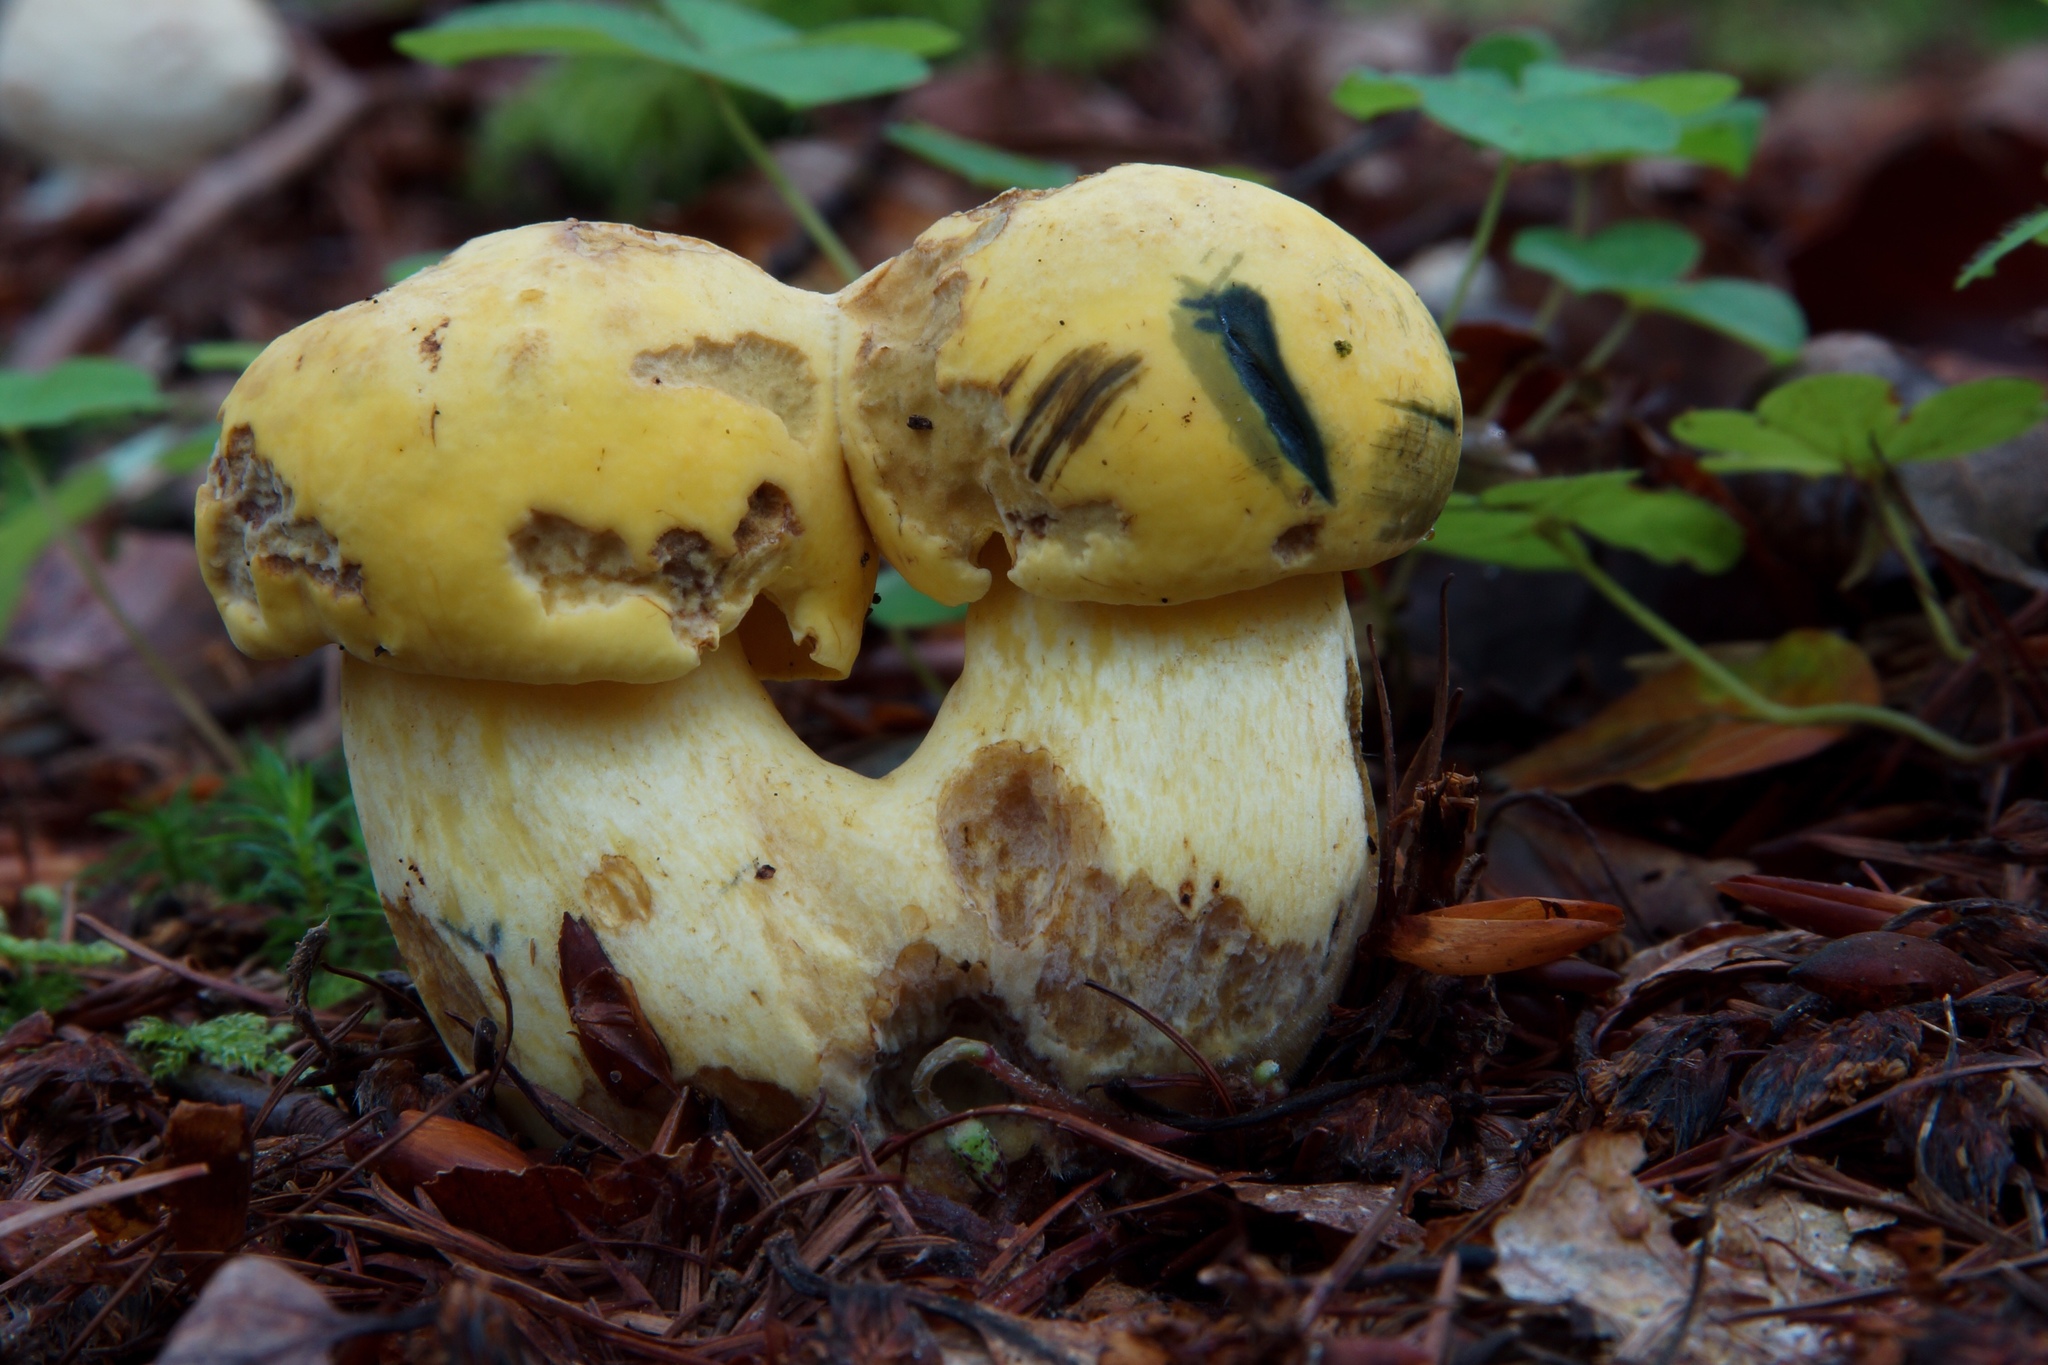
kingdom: Fungi
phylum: Basidiomycota
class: Agaricomycetes
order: Boletales
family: Boletaceae
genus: Neoboletus
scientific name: Neoboletus praestigiator
